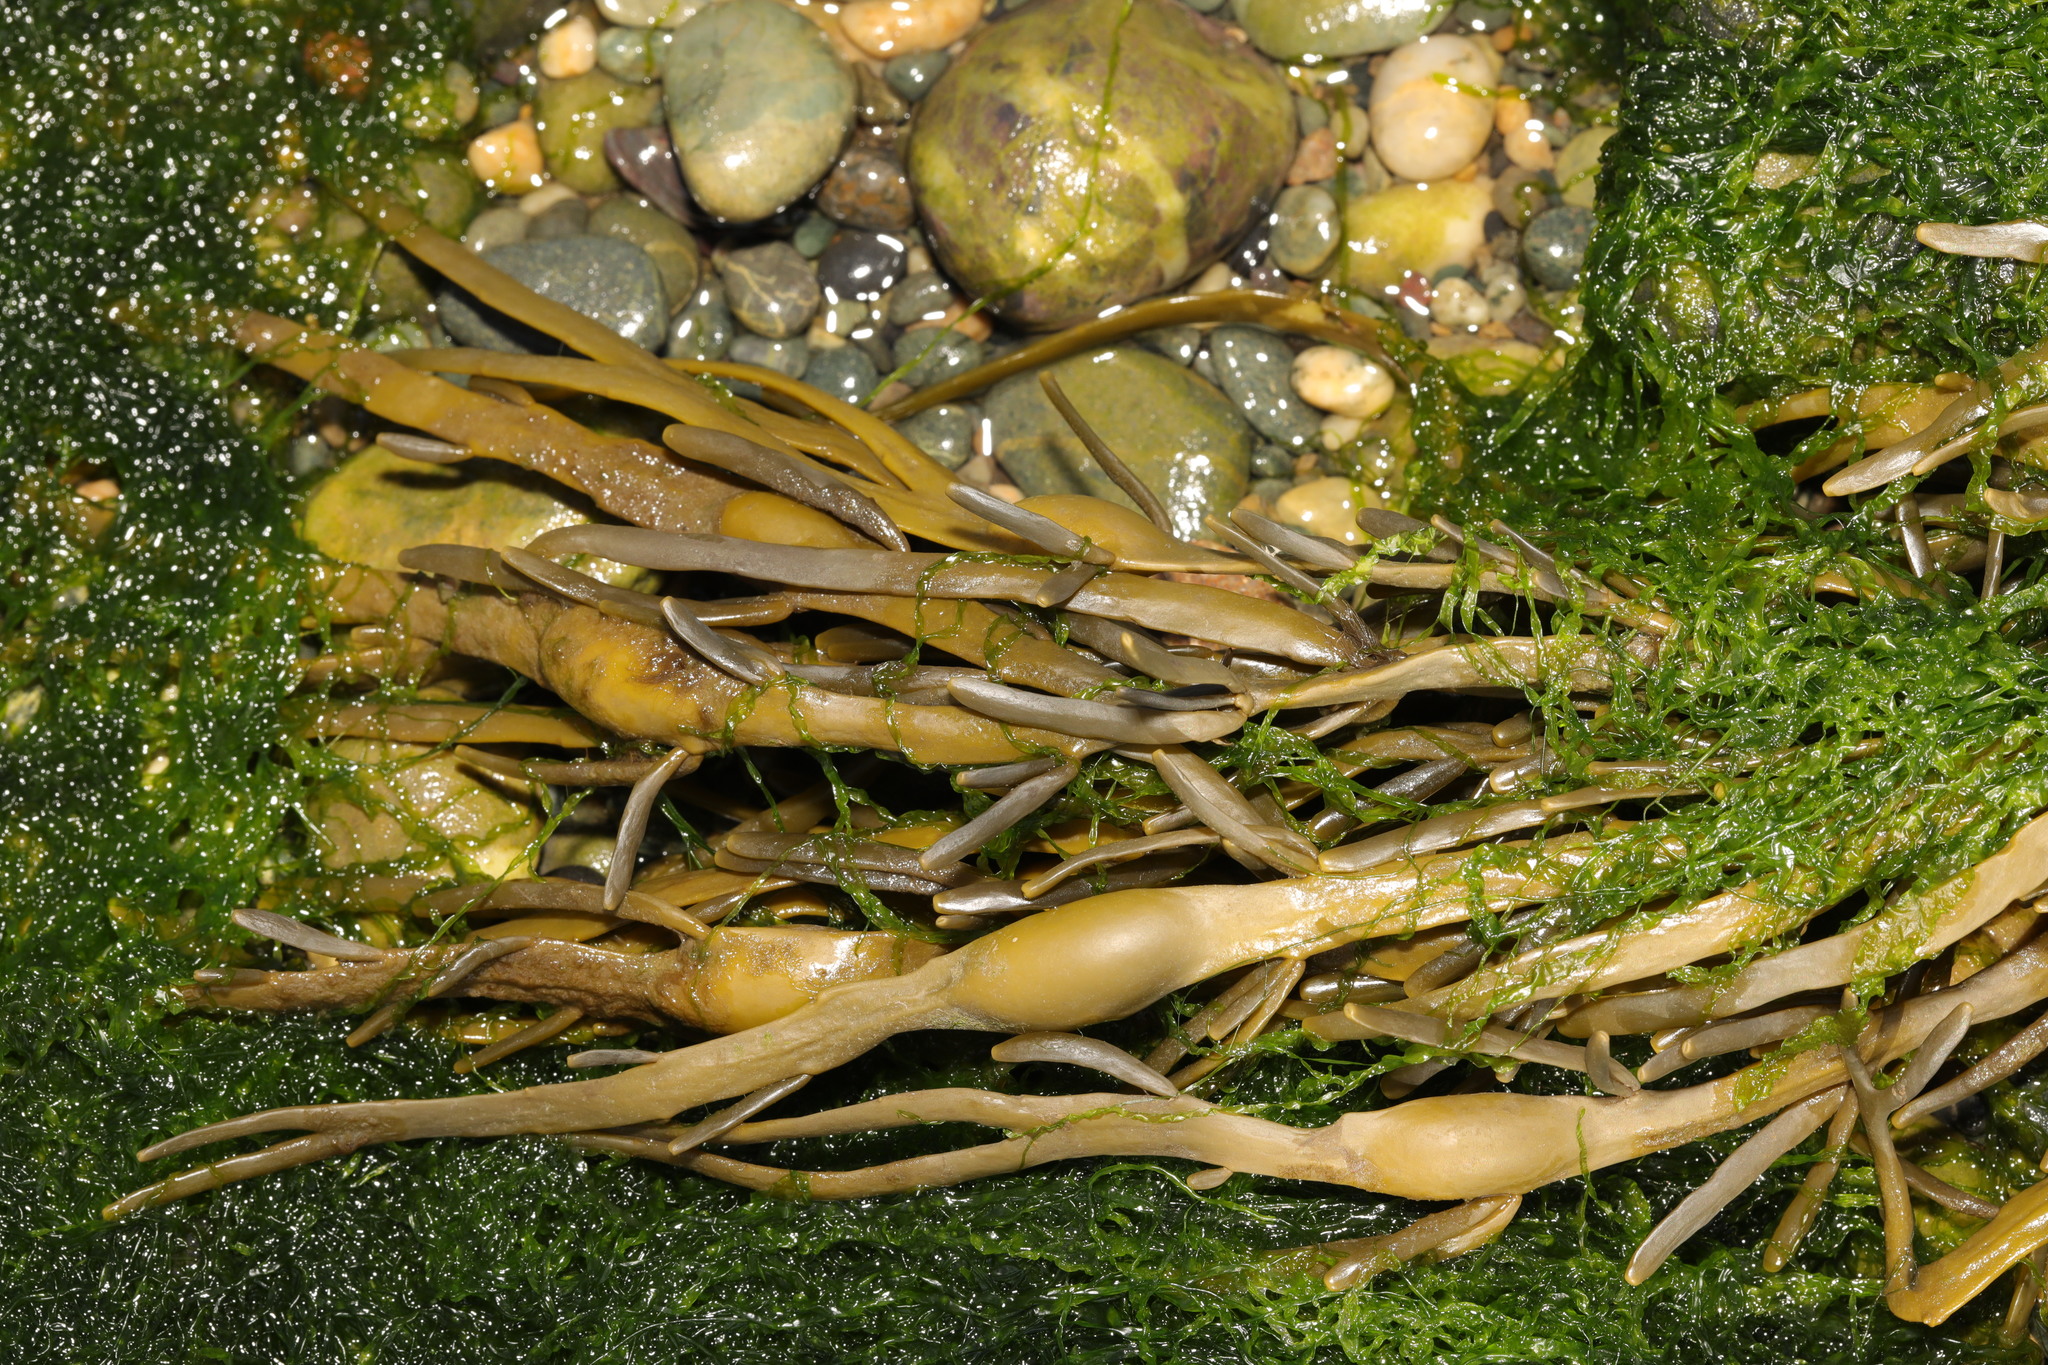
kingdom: Chromista
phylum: Ochrophyta
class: Phaeophyceae
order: Fucales
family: Fucaceae
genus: Ascophyllum
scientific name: Ascophyllum nodosum
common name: Knotted wrack
